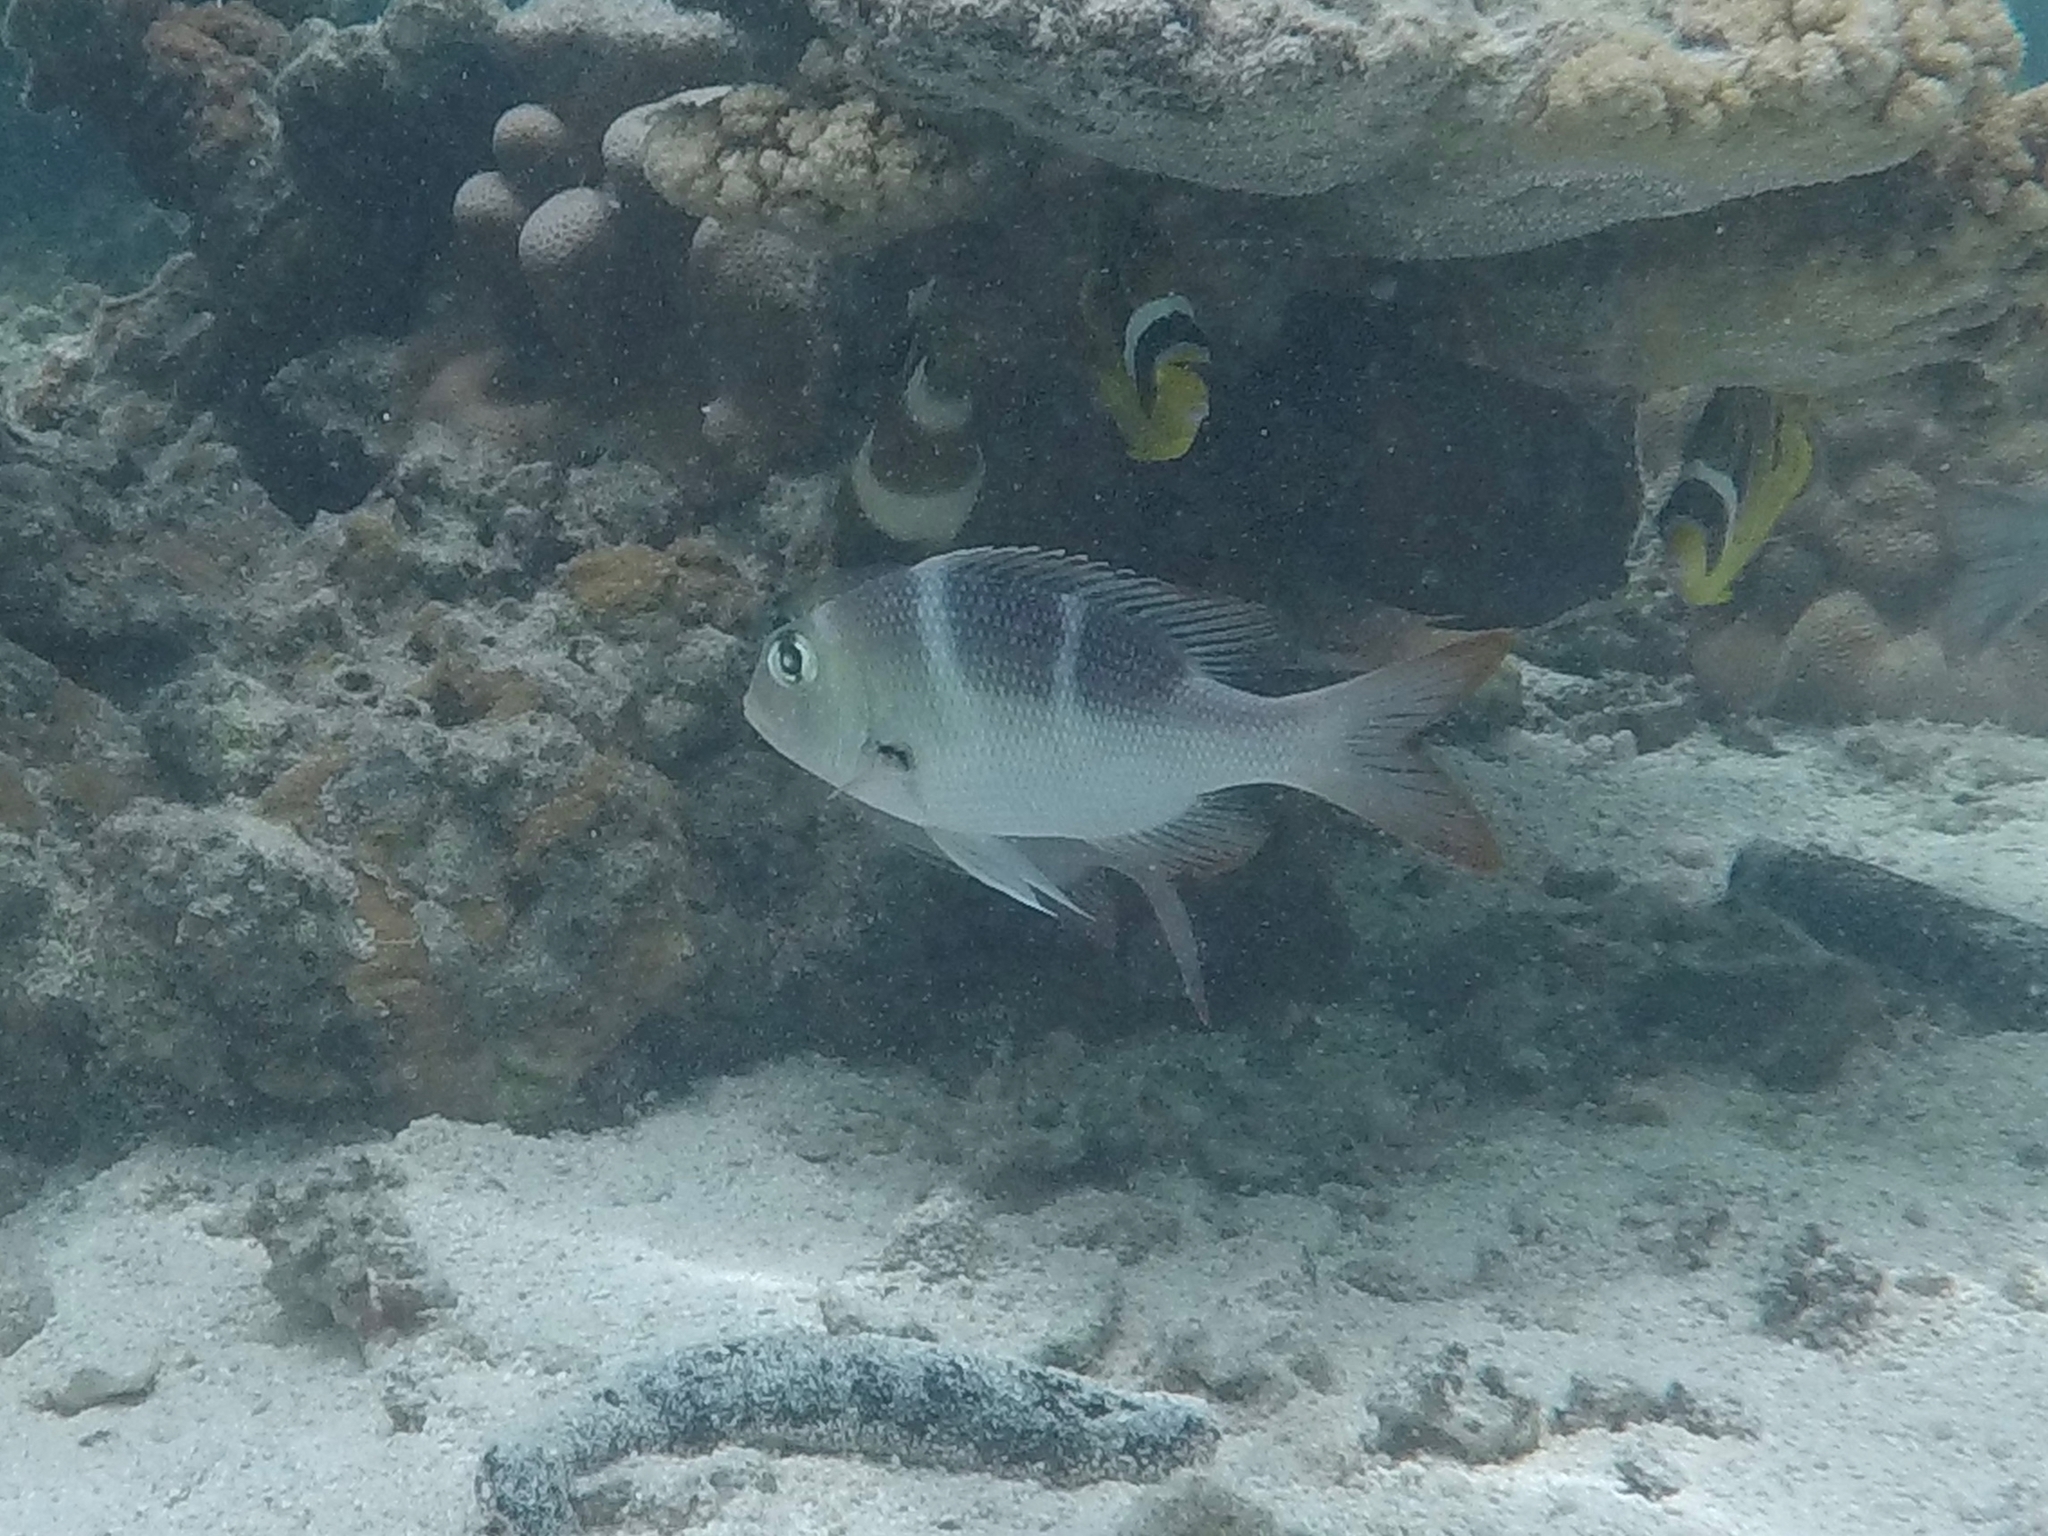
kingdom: Animalia
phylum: Chordata
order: Perciformes
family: Lethrinidae
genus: Monotaxis
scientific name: Monotaxis grandoculis
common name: Bigeye emperor
